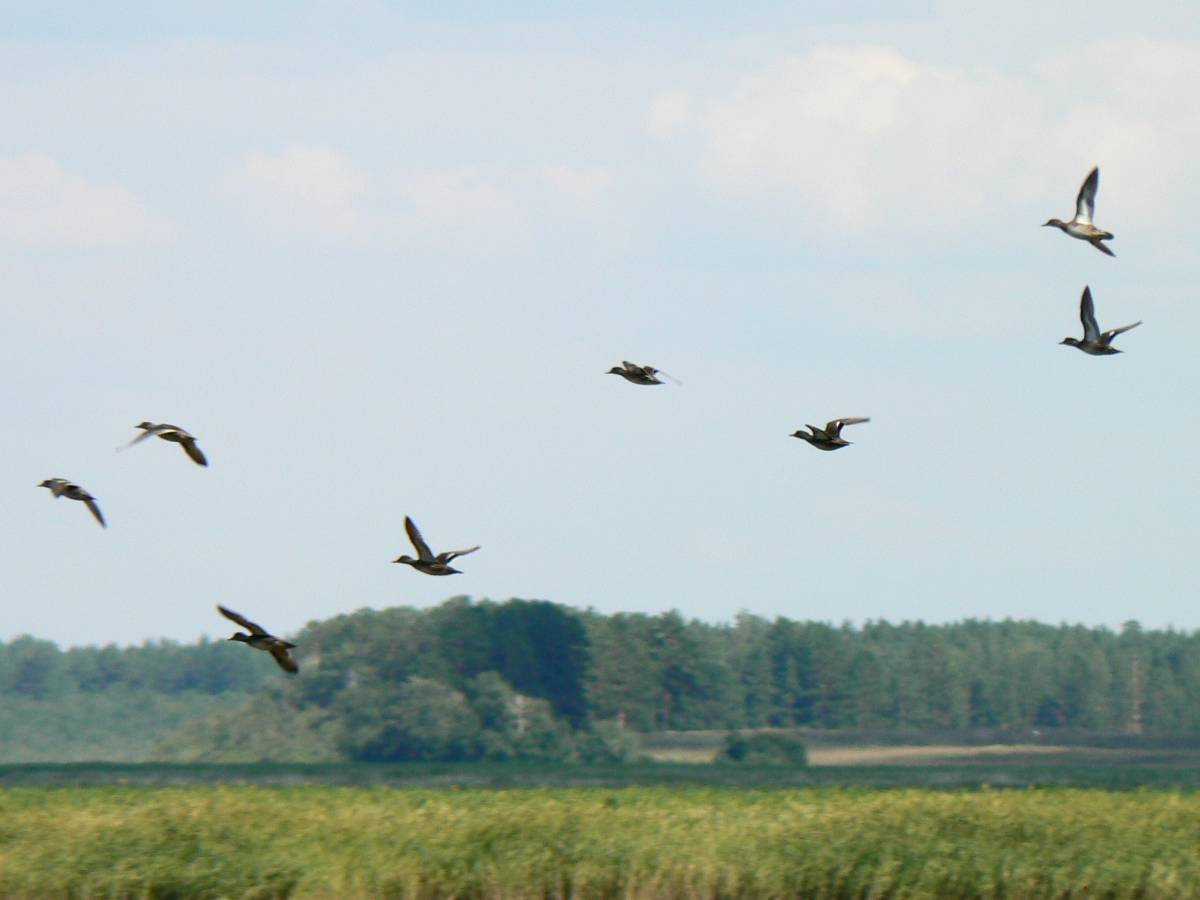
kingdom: Animalia
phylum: Chordata
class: Aves
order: Anseriformes
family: Anatidae
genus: Anas
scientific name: Anas crecca
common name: Eurasian teal
